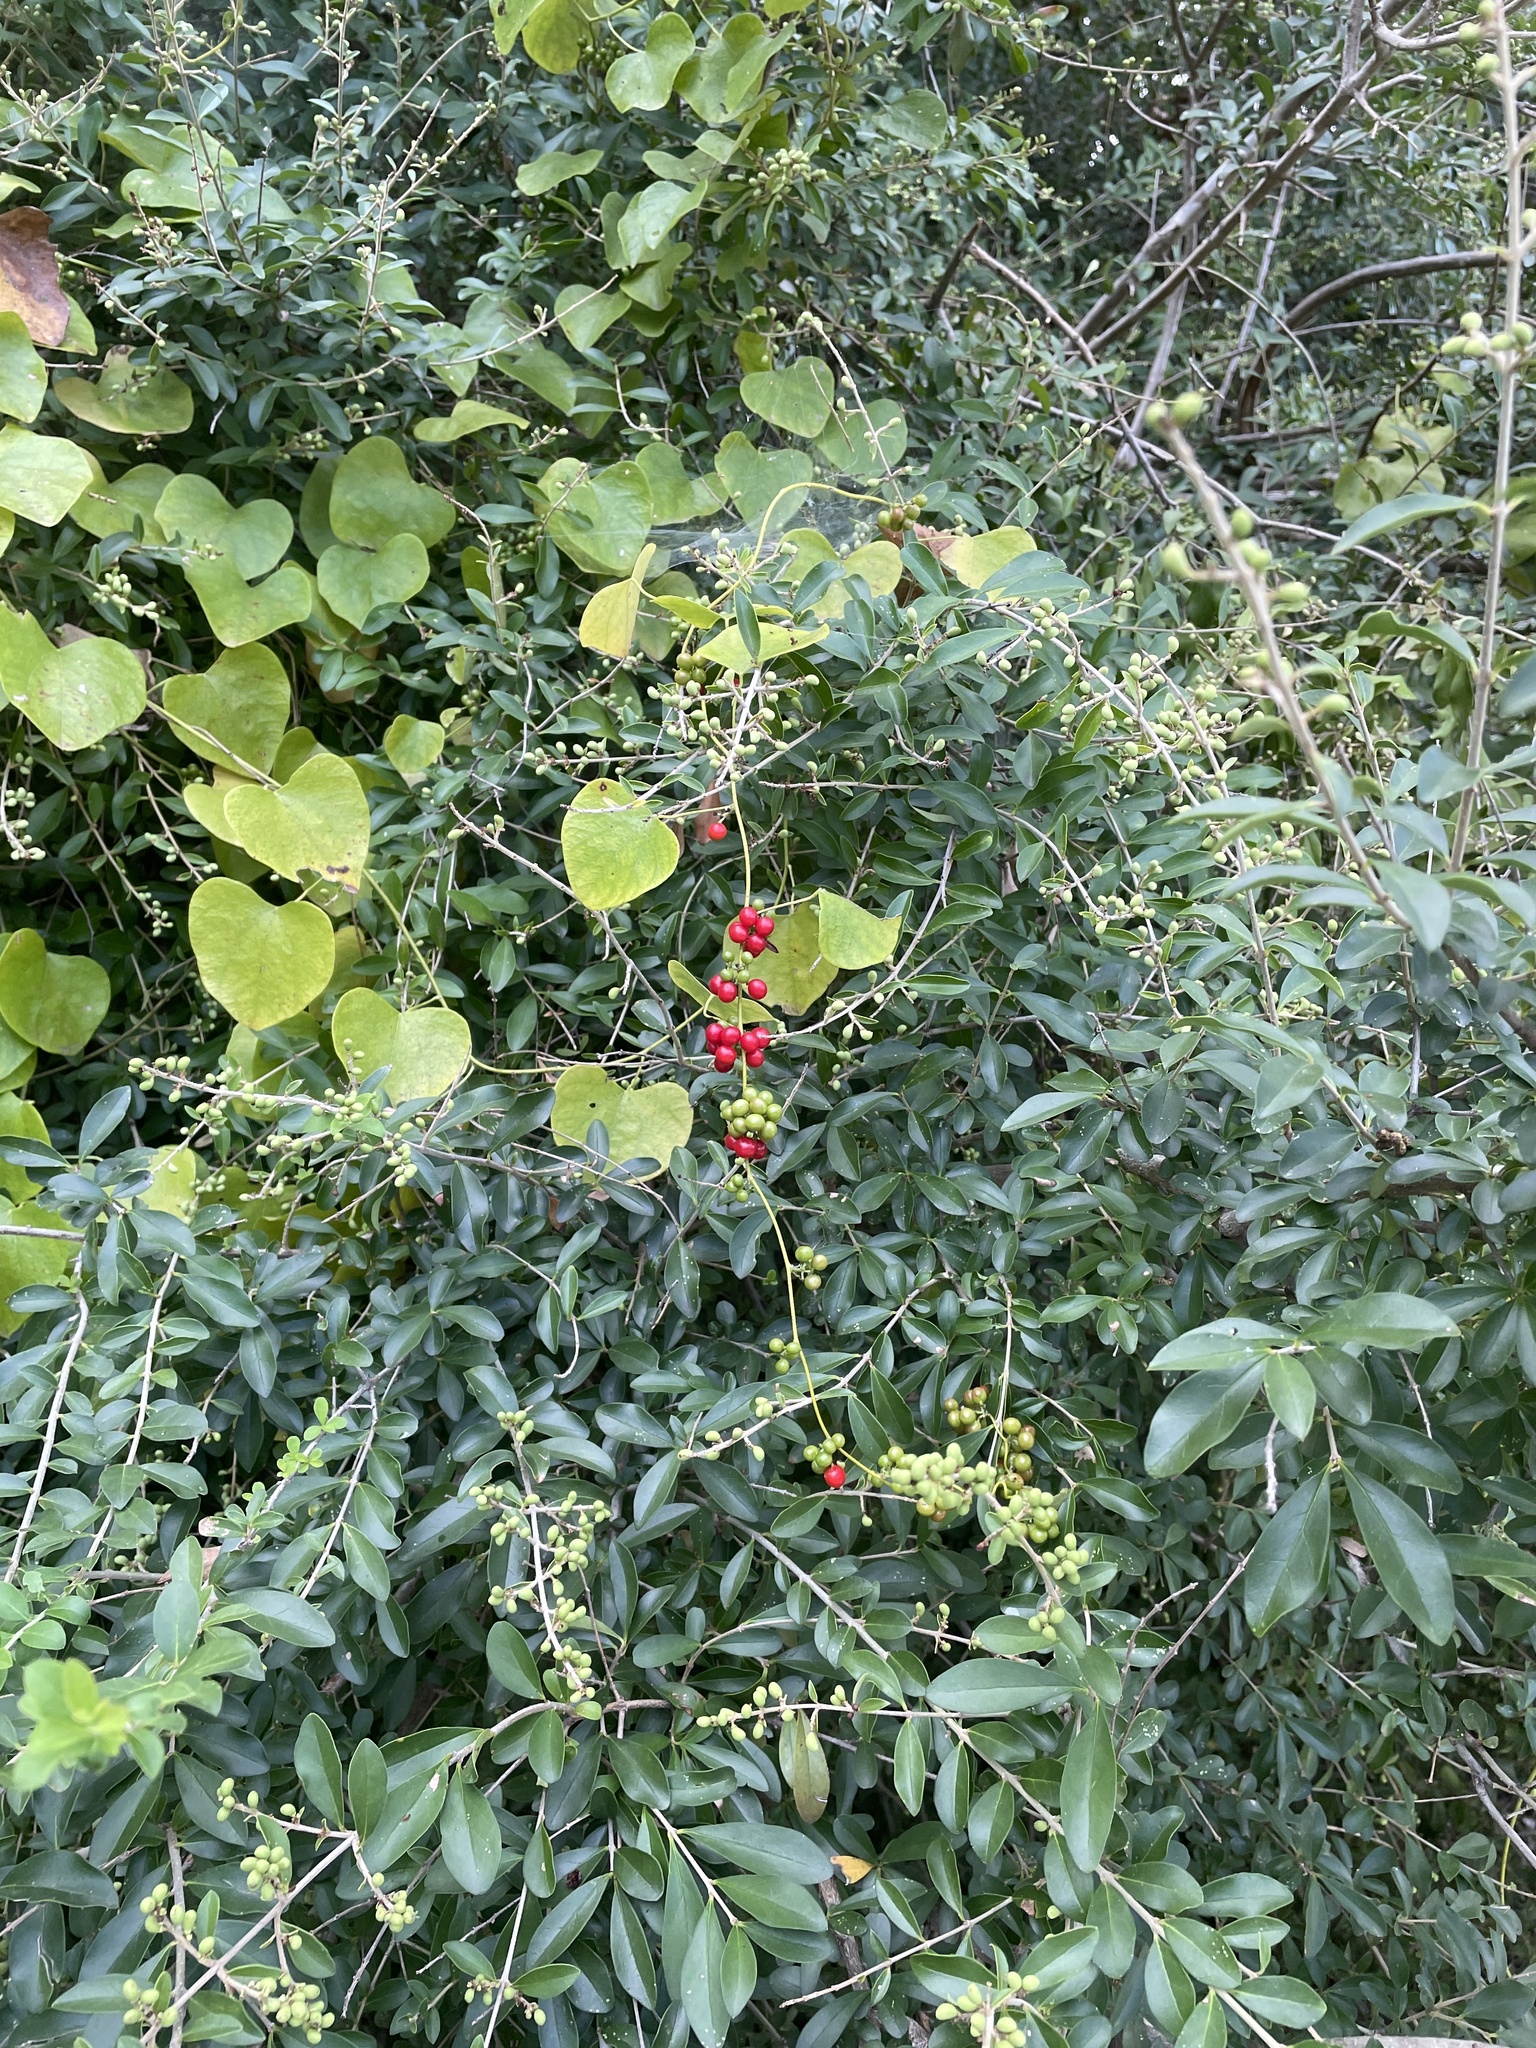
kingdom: Plantae
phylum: Tracheophyta
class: Magnoliopsida
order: Ranunculales
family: Menispermaceae
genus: Cocculus
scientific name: Cocculus carolinus
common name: Carolina moonseed
